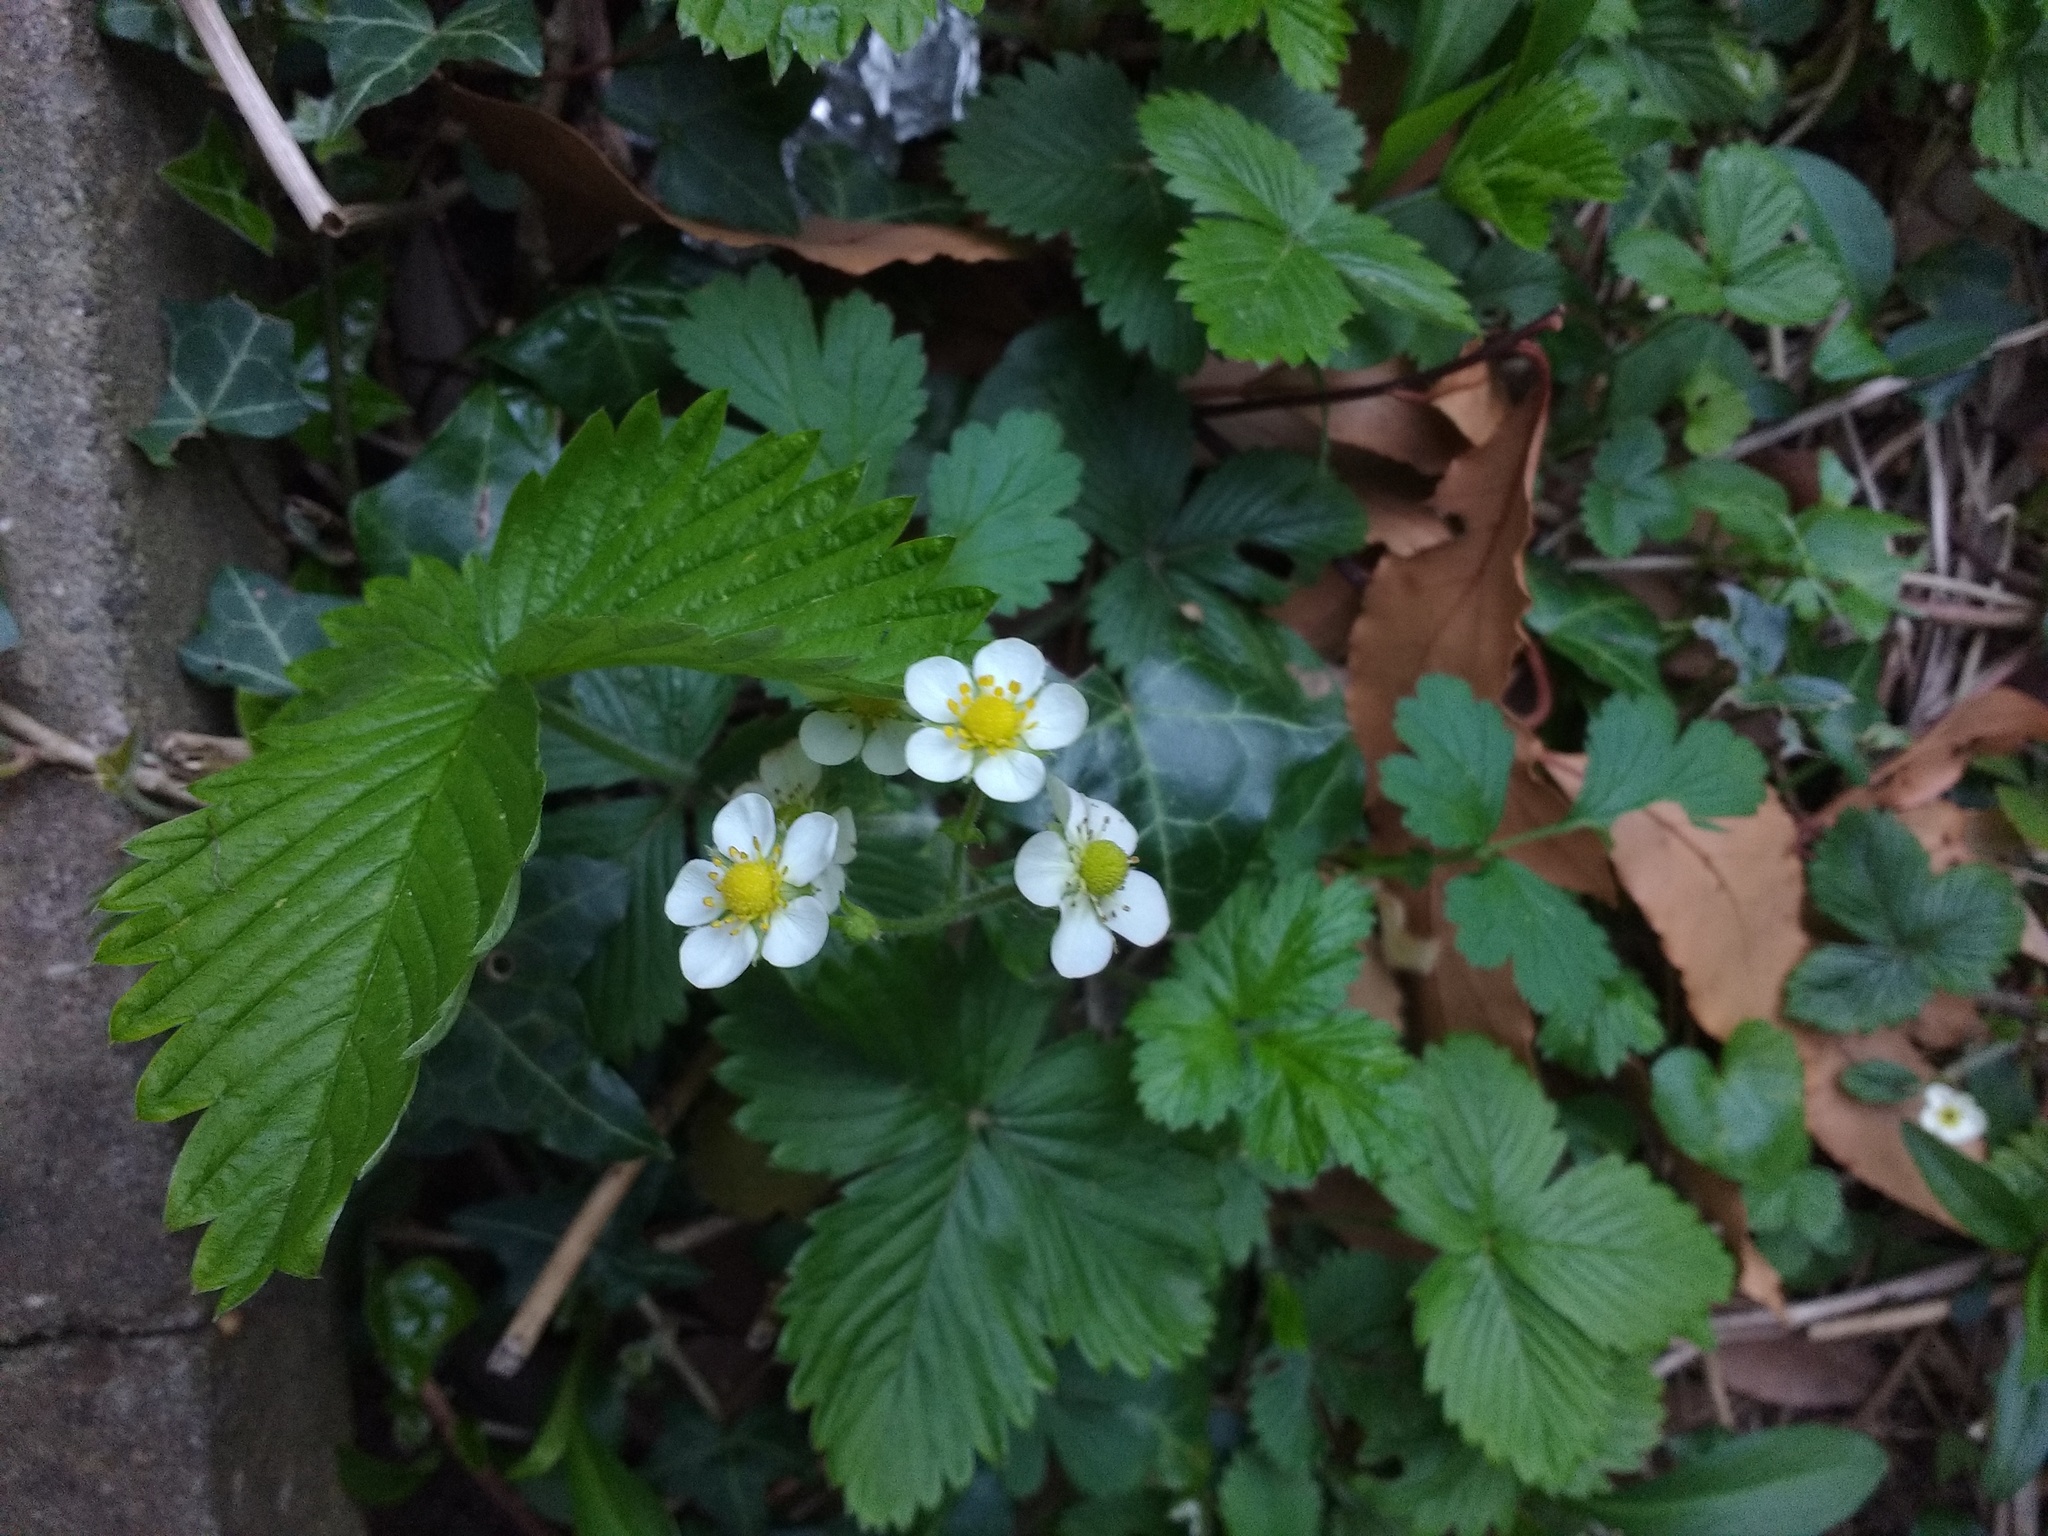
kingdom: Plantae
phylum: Tracheophyta
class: Magnoliopsida
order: Rosales
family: Rosaceae
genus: Fragaria
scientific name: Fragaria vesca
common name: Wild strawberry
